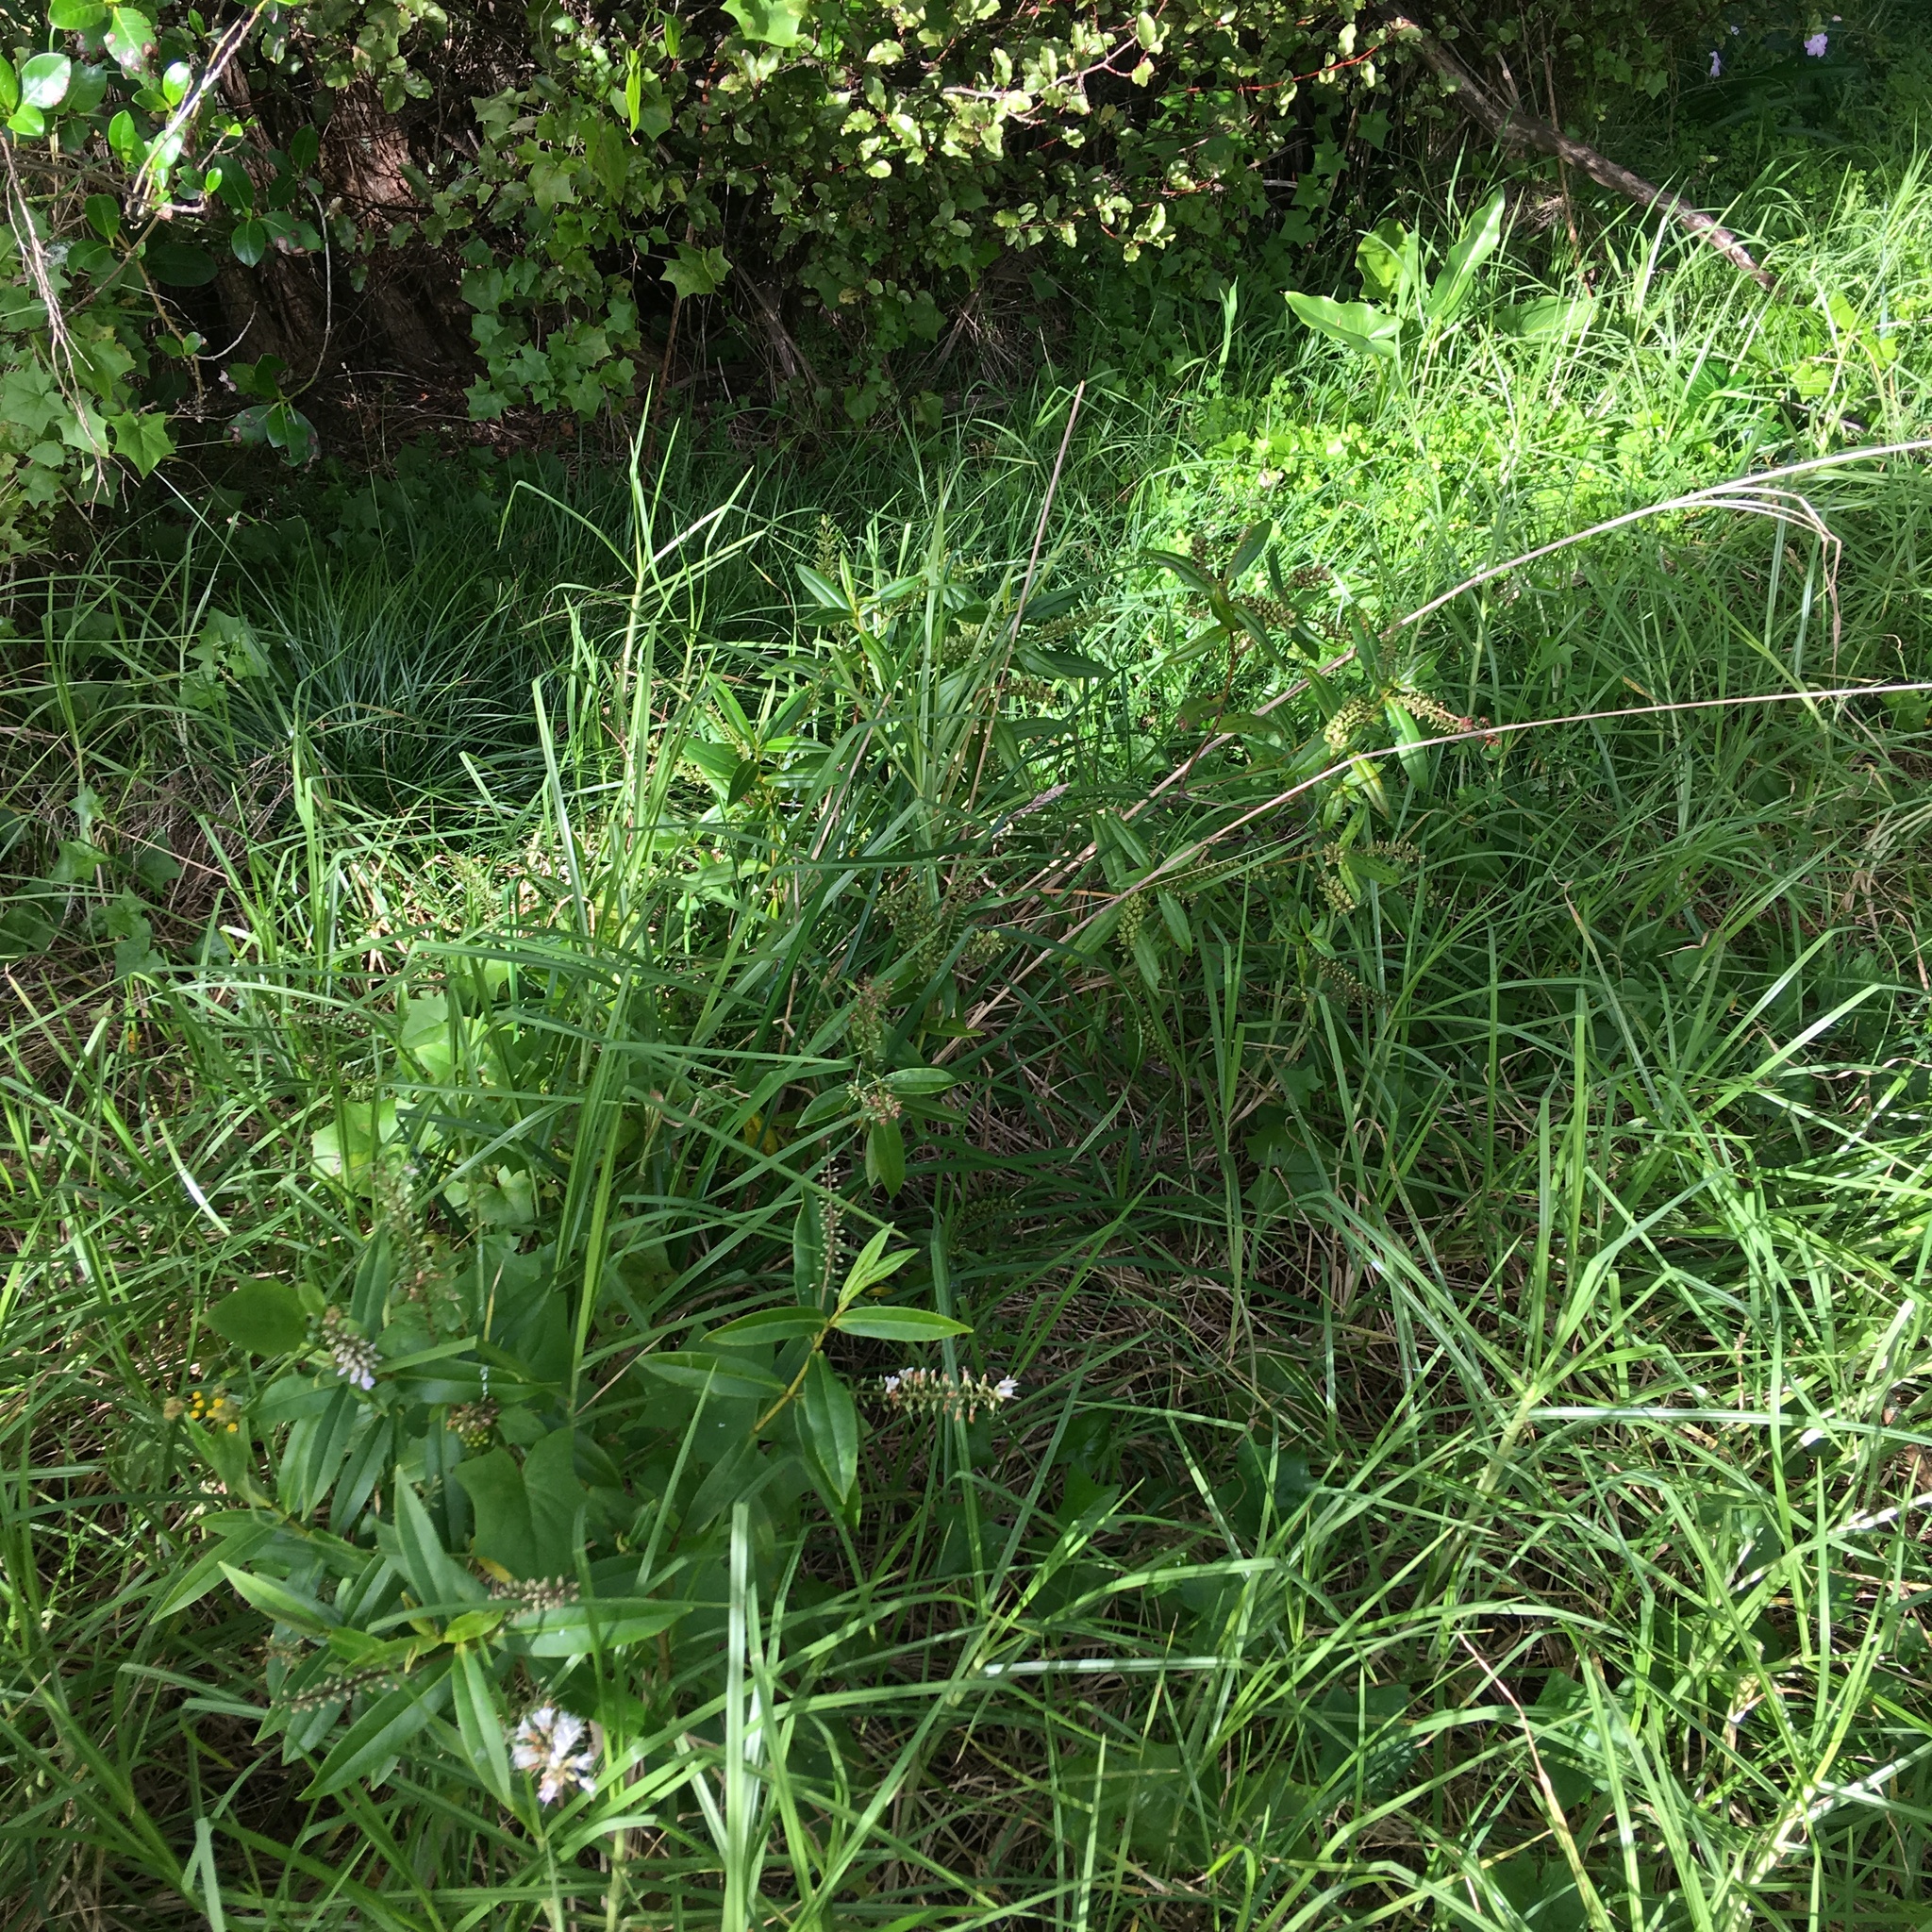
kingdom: Plantae
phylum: Tracheophyta
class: Magnoliopsida
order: Lamiales
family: Plantaginaceae
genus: Veronica
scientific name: Veronica macrocarpa
